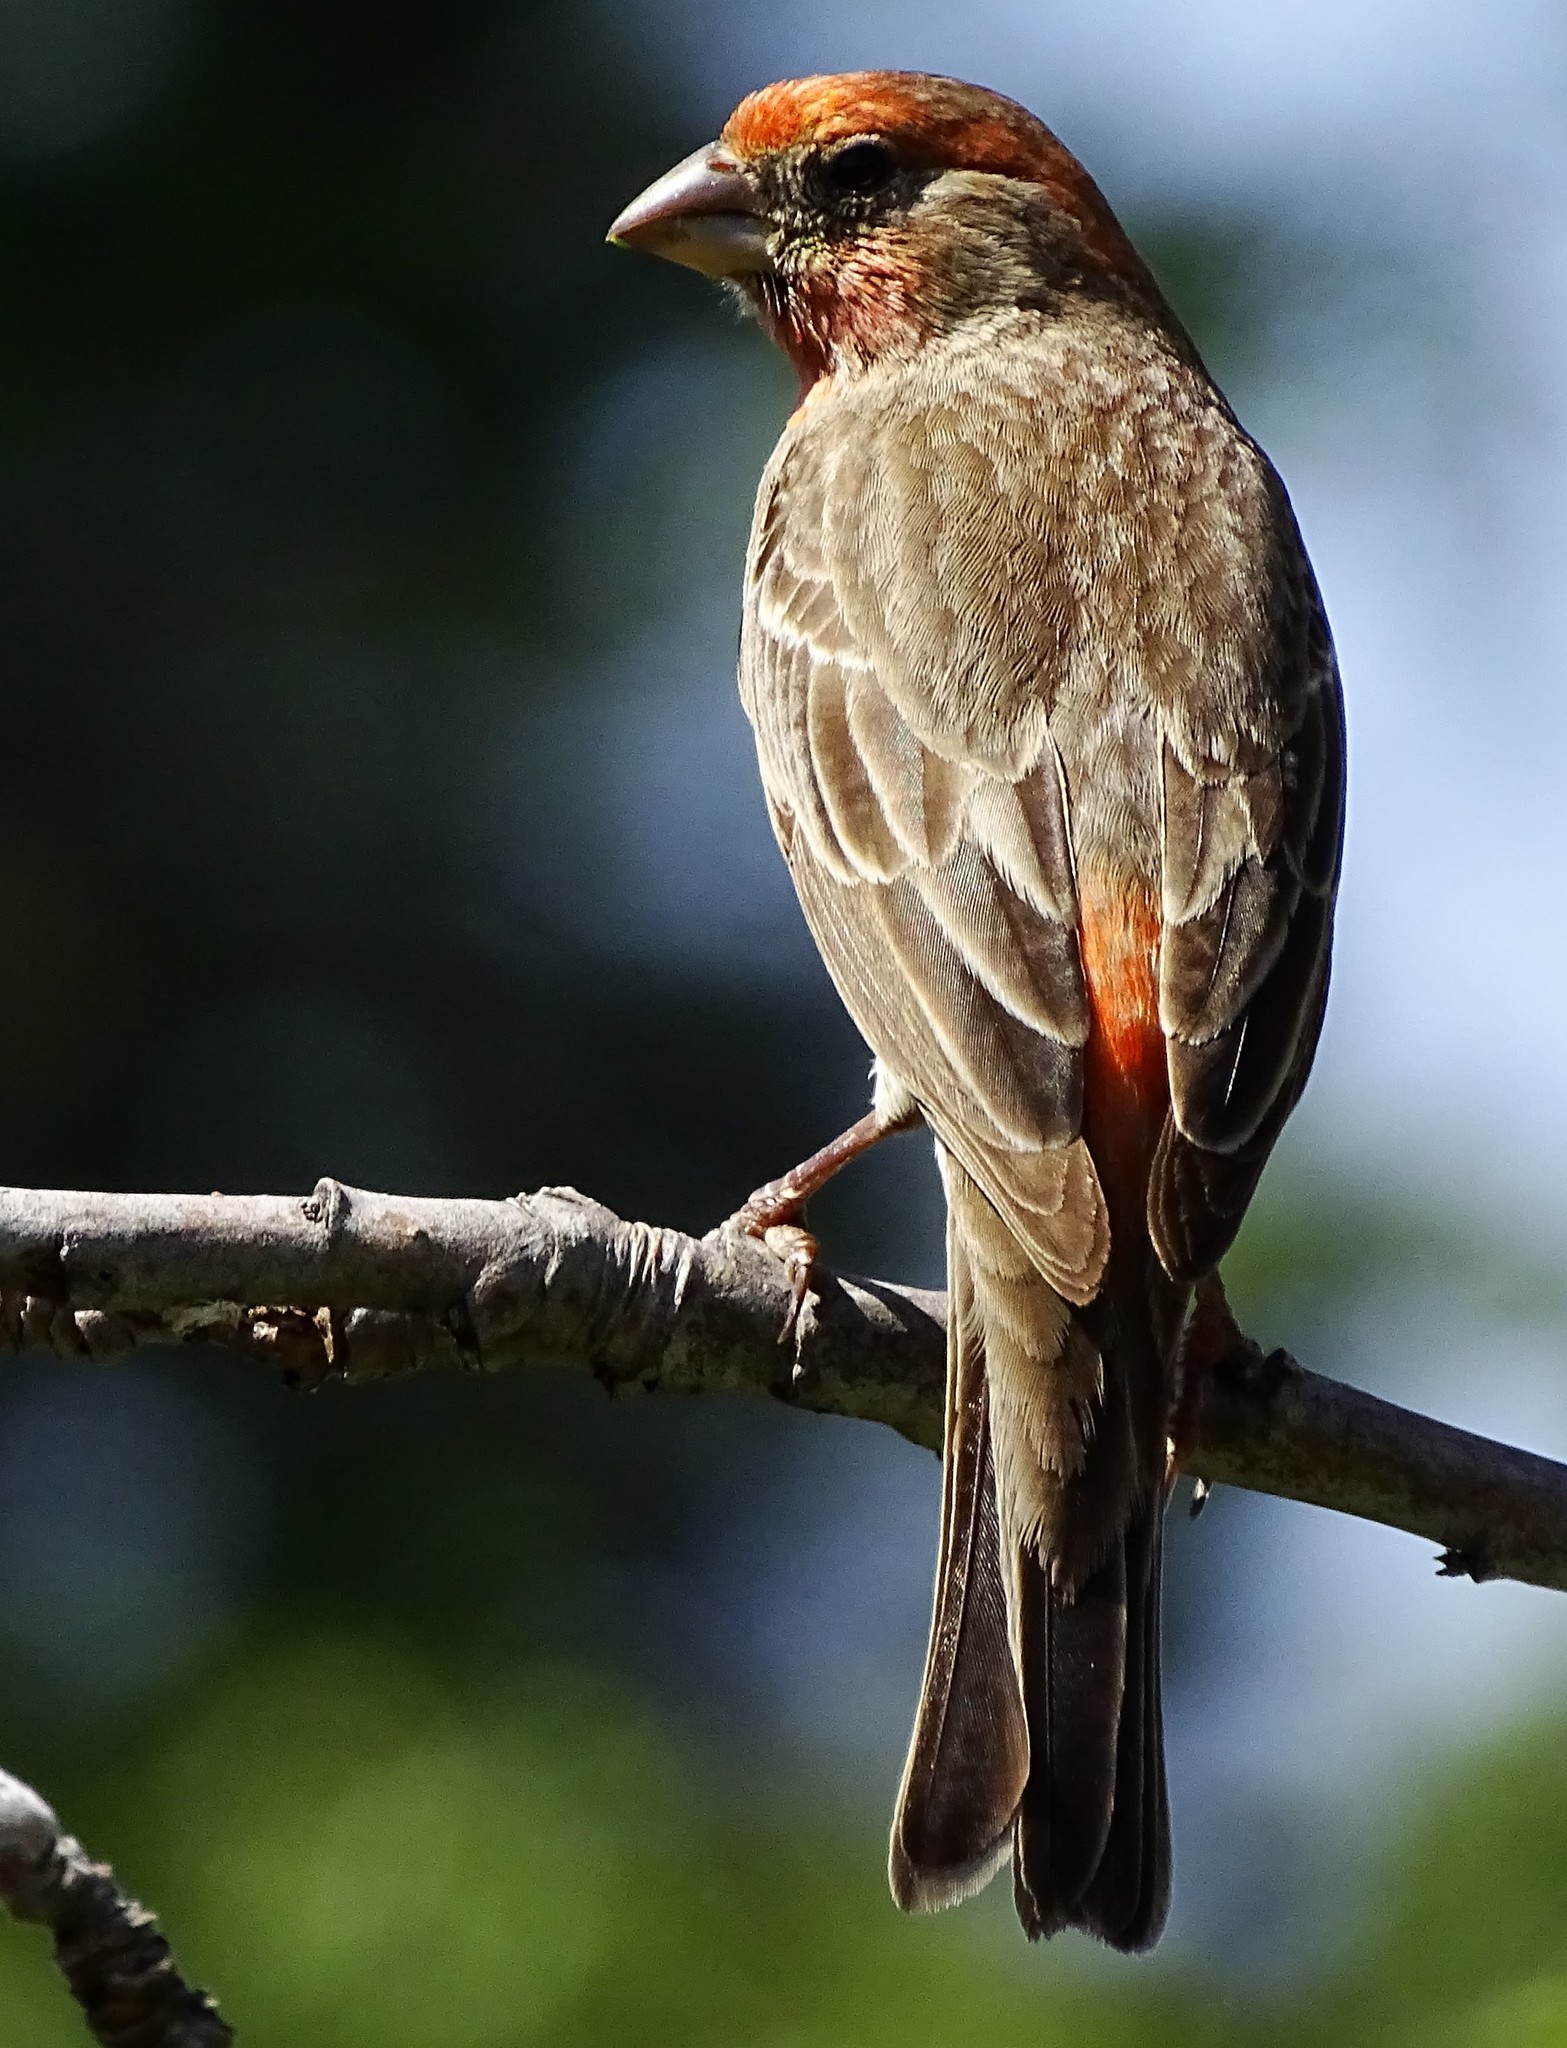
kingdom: Animalia
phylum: Chordata
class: Aves
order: Passeriformes
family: Fringillidae
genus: Haemorhous
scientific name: Haemorhous mexicanus
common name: House finch
